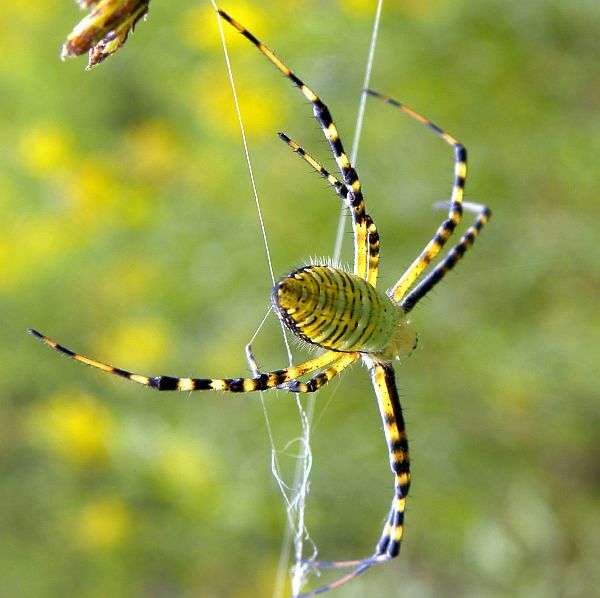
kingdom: Animalia
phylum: Arthropoda
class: Arachnida
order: Araneae
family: Araneidae
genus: Argiope
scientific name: Argiope trifasciata
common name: Banded garden spider
